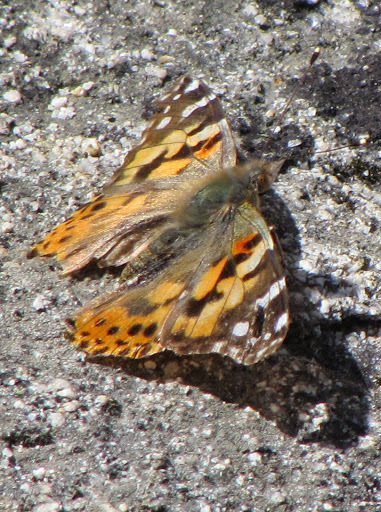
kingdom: Animalia
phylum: Arthropoda
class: Insecta
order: Lepidoptera
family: Nymphalidae
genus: Vanessa
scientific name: Vanessa cardui
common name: Painted lady
